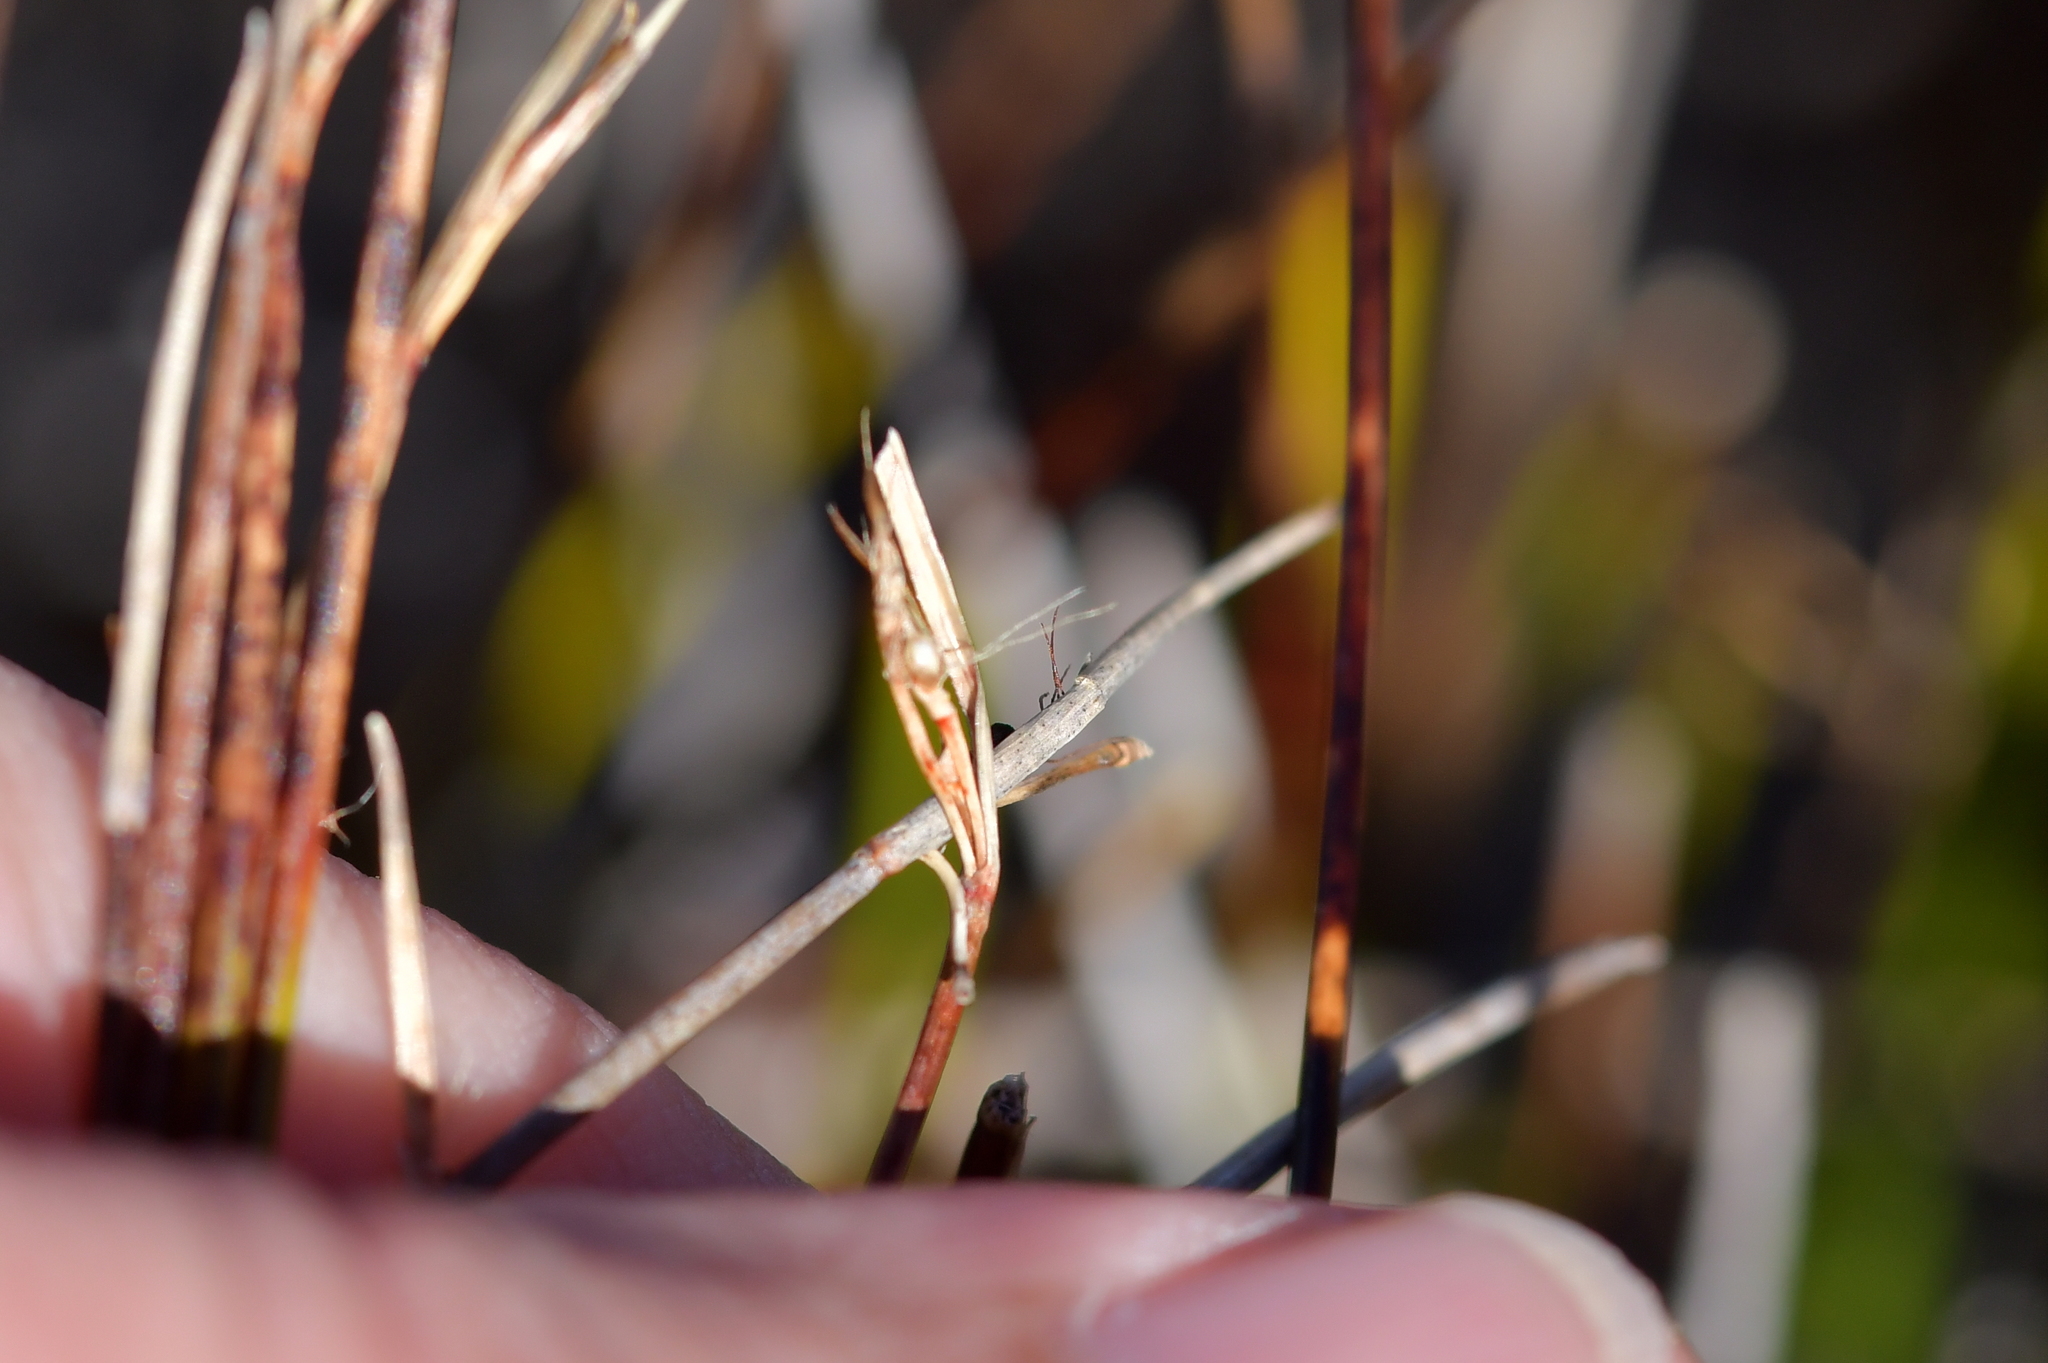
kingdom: Plantae
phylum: Tracheophyta
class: Liliopsida
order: Poales
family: Cyperaceae
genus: Schoenus
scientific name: Schoenus pauciflorus
